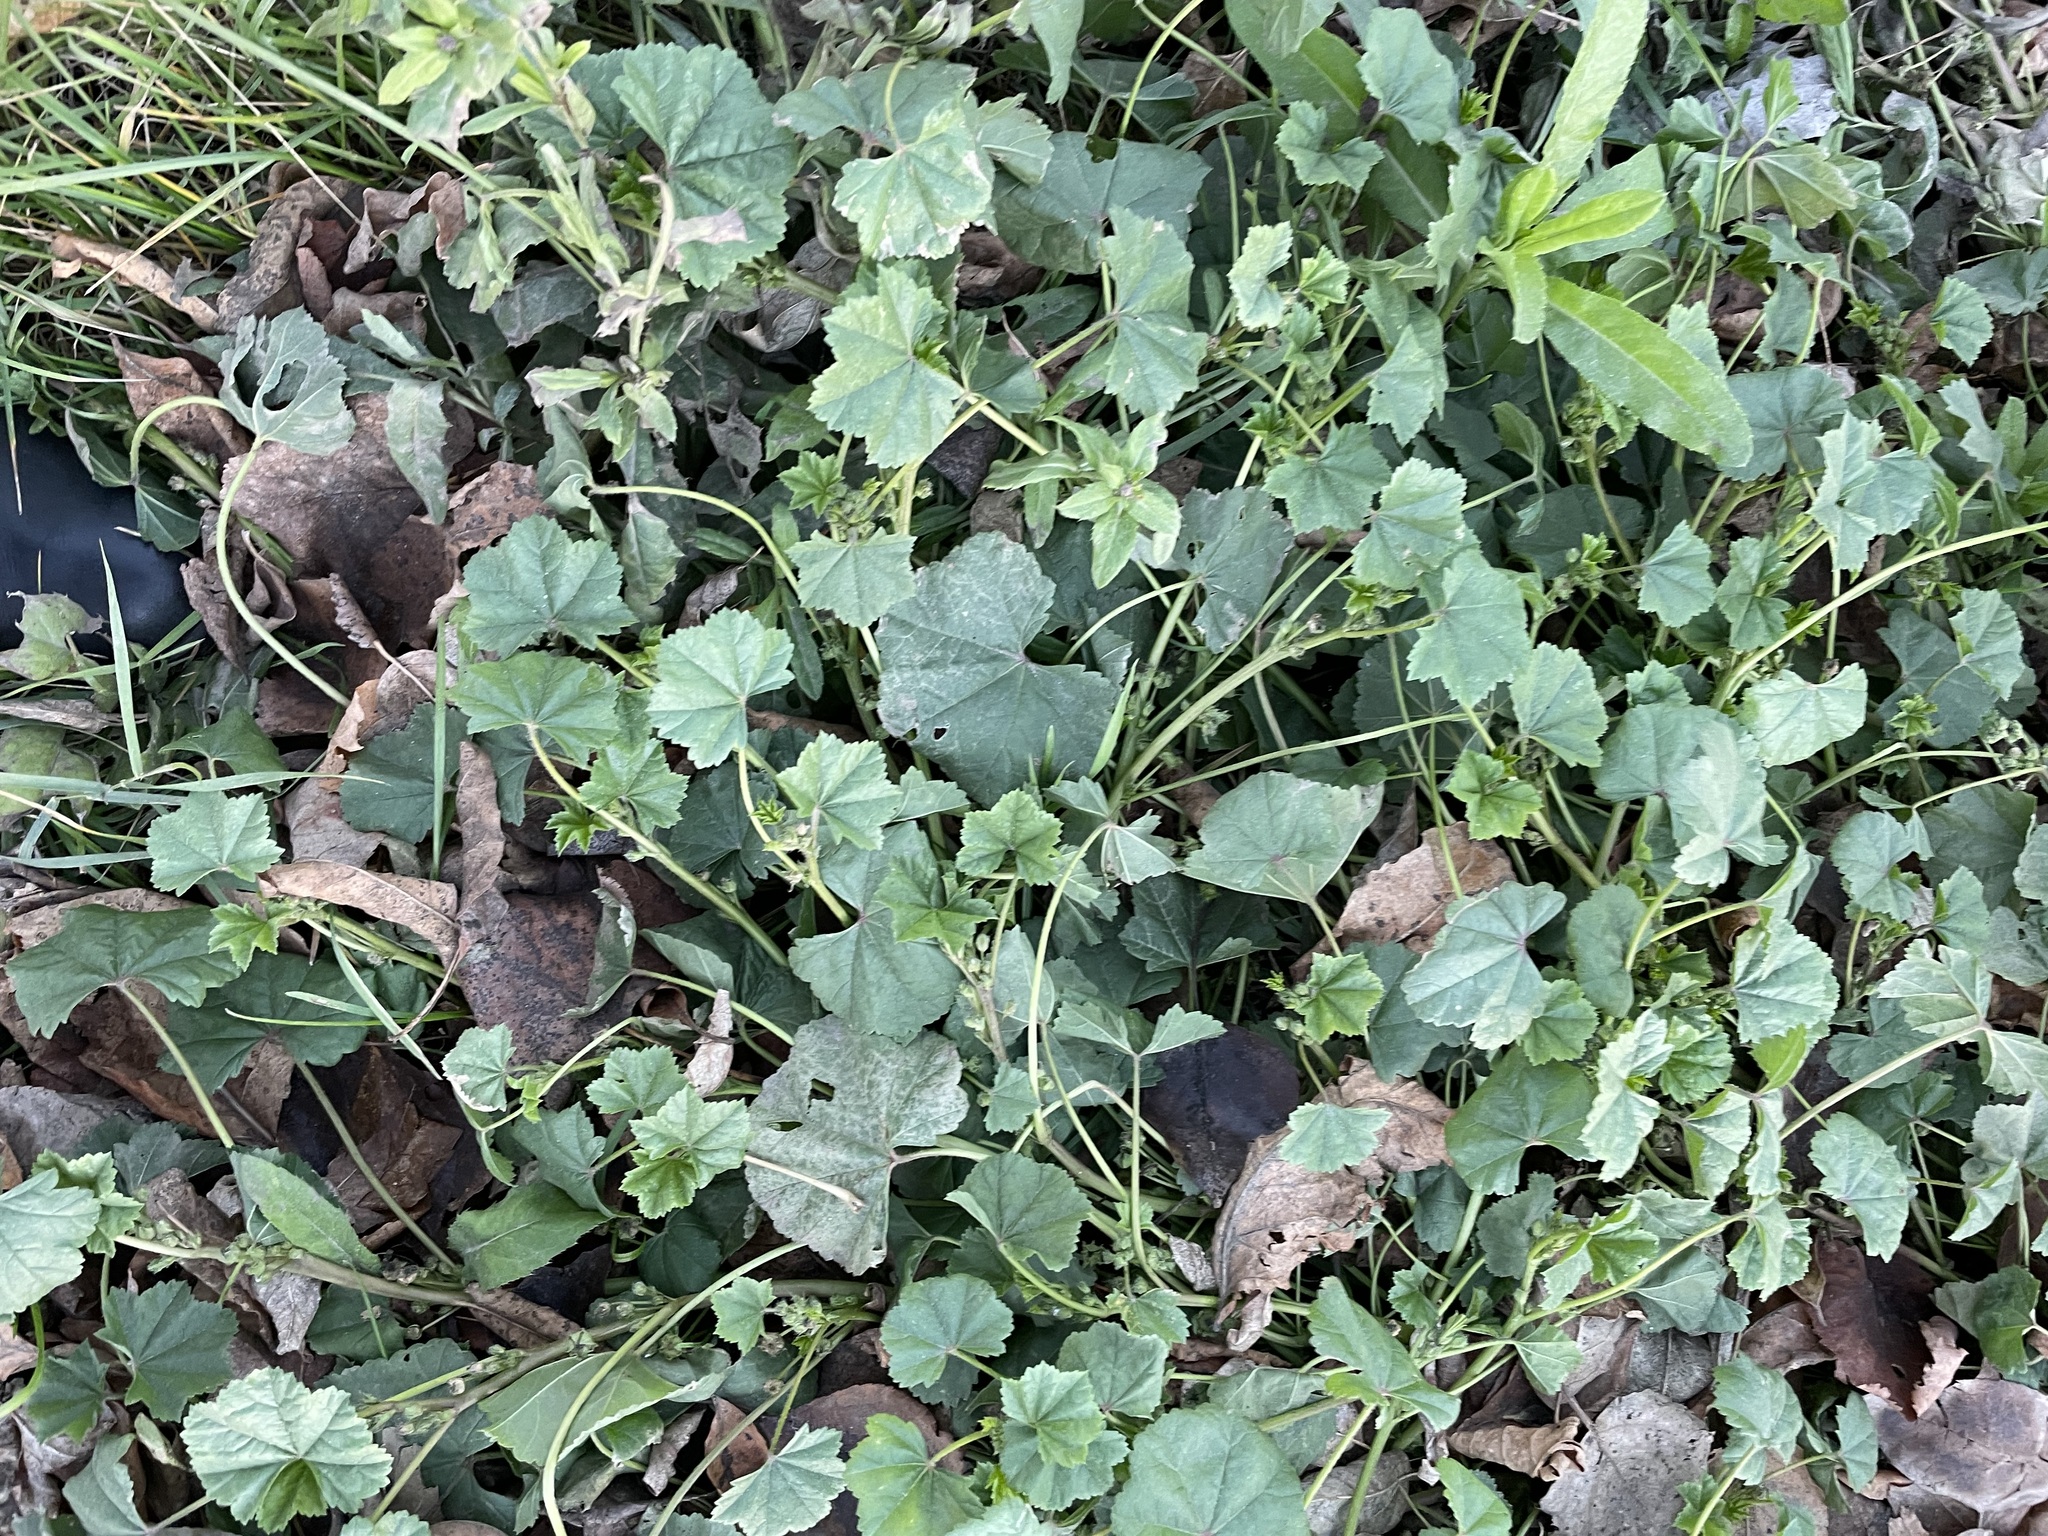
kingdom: Plantae
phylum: Tracheophyta
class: Magnoliopsida
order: Malvales
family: Malvaceae
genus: Malva
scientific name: Malva pusilla
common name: Small mallow
